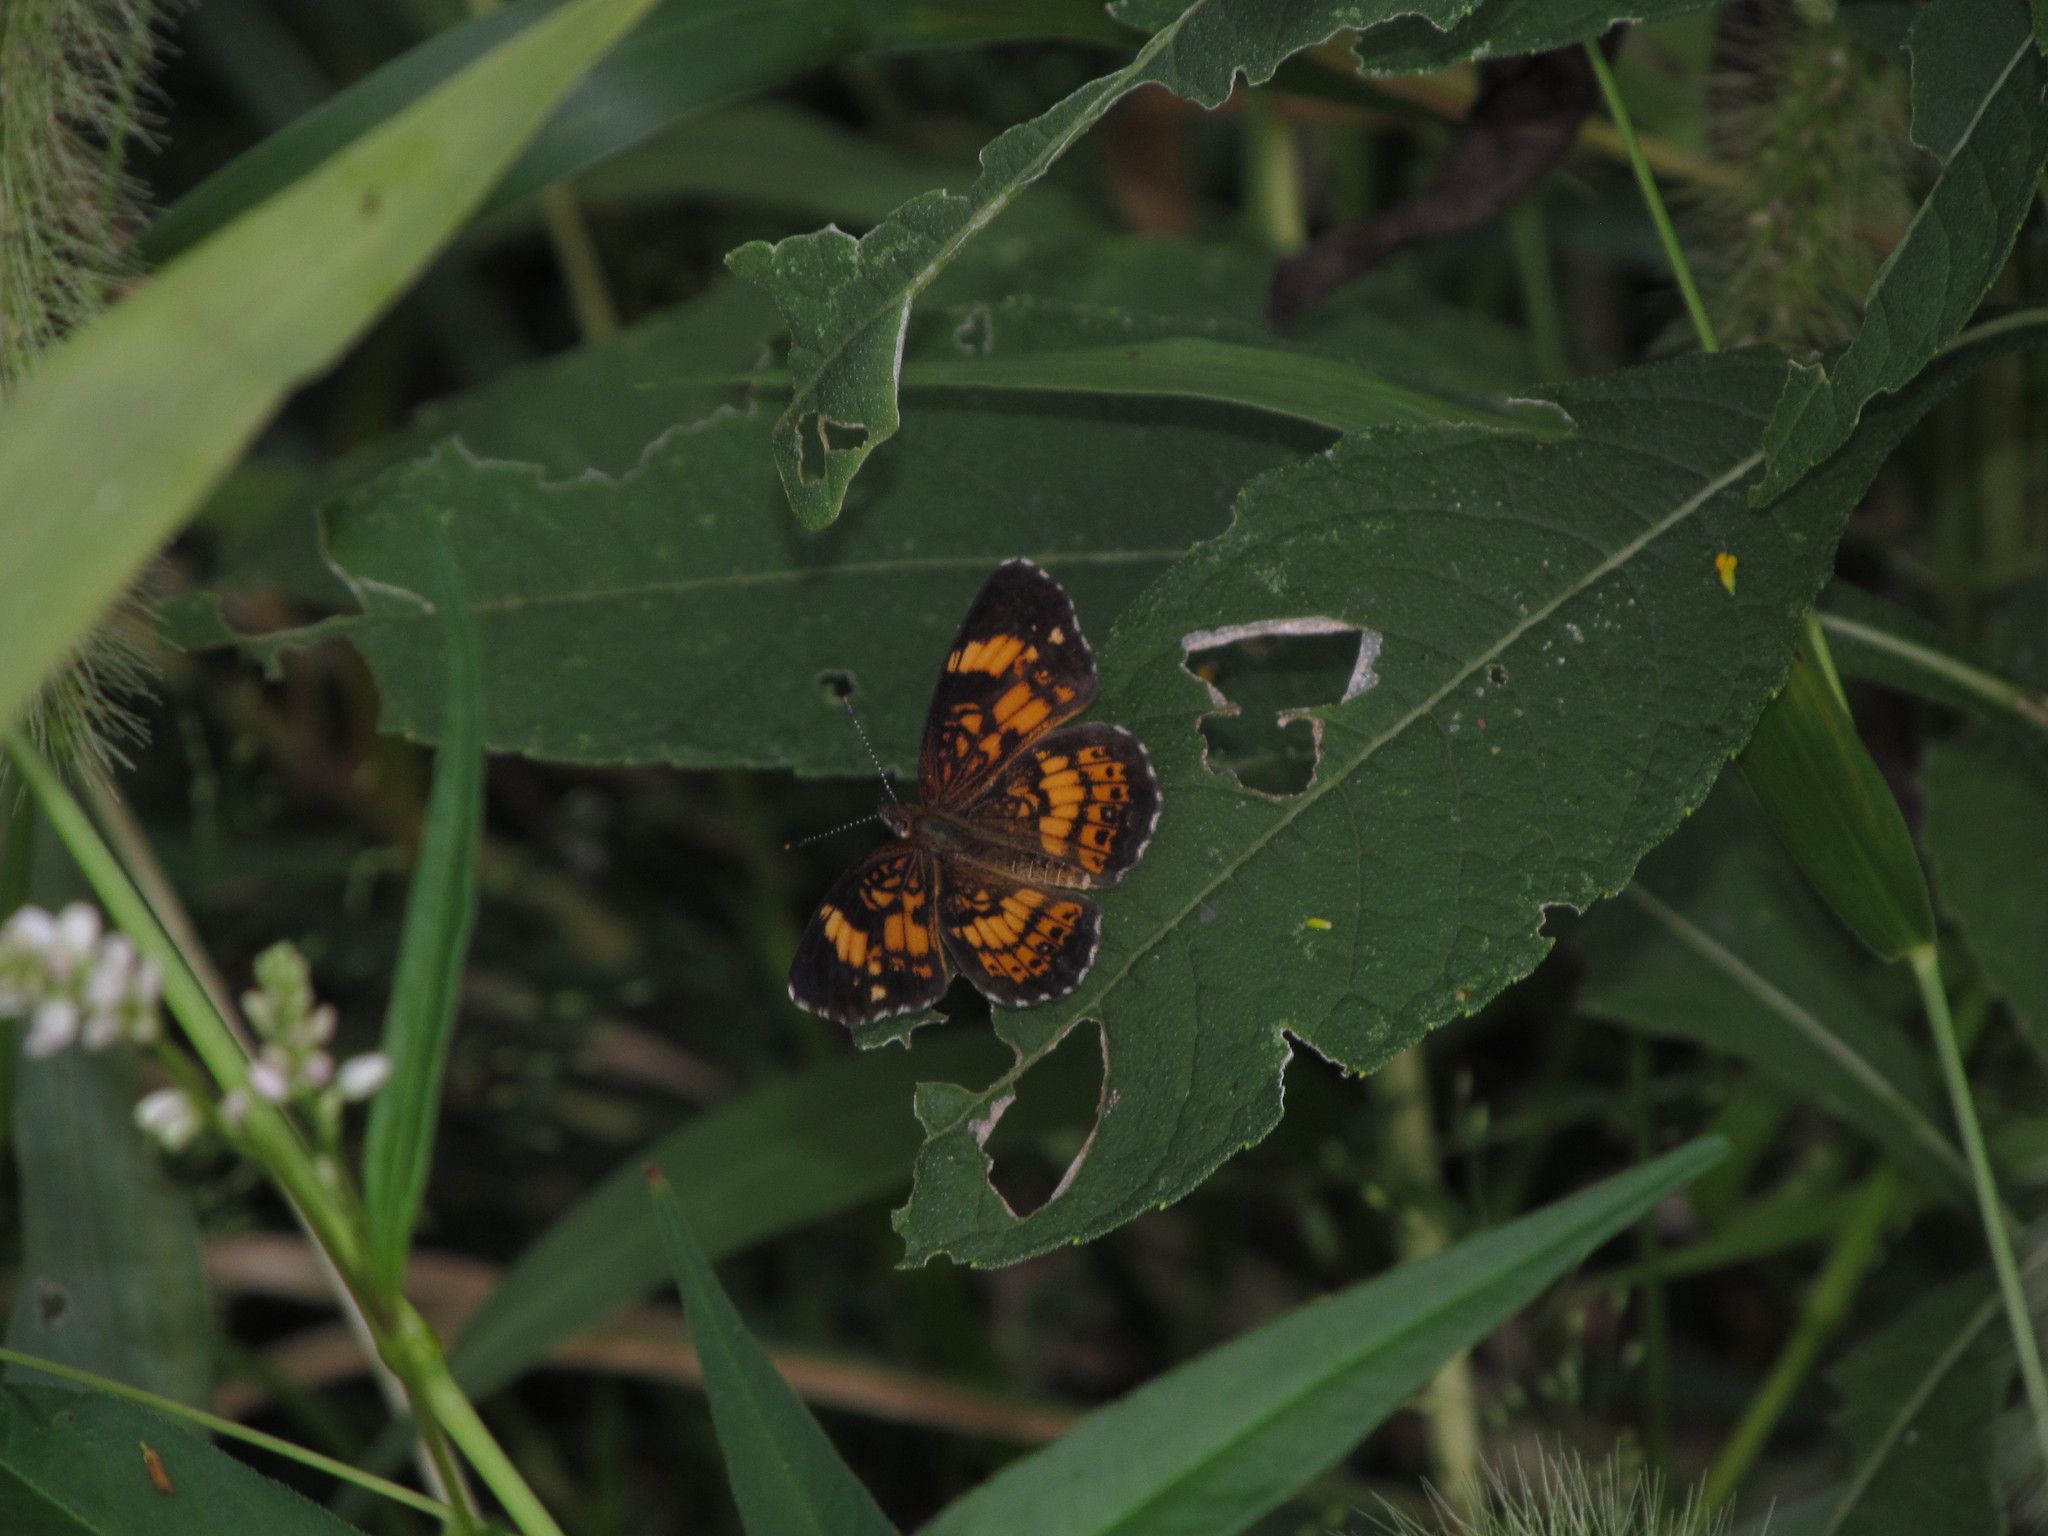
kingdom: Animalia
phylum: Arthropoda
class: Insecta
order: Lepidoptera
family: Nymphalidae
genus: Chlosyne
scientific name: Chlosyne nycteis
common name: Silvery checkerspot
